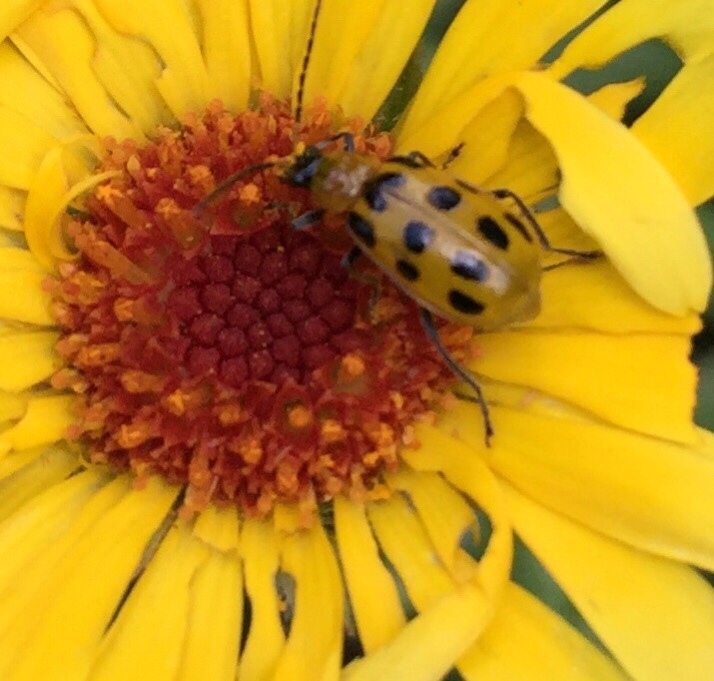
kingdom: Animalia
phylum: Arthropoda
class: Insecta
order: Coleoptera
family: Chrysomelidae
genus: Diabrotica
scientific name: Diabrotica undecimpunctata
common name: Spotted cucumber beetle
